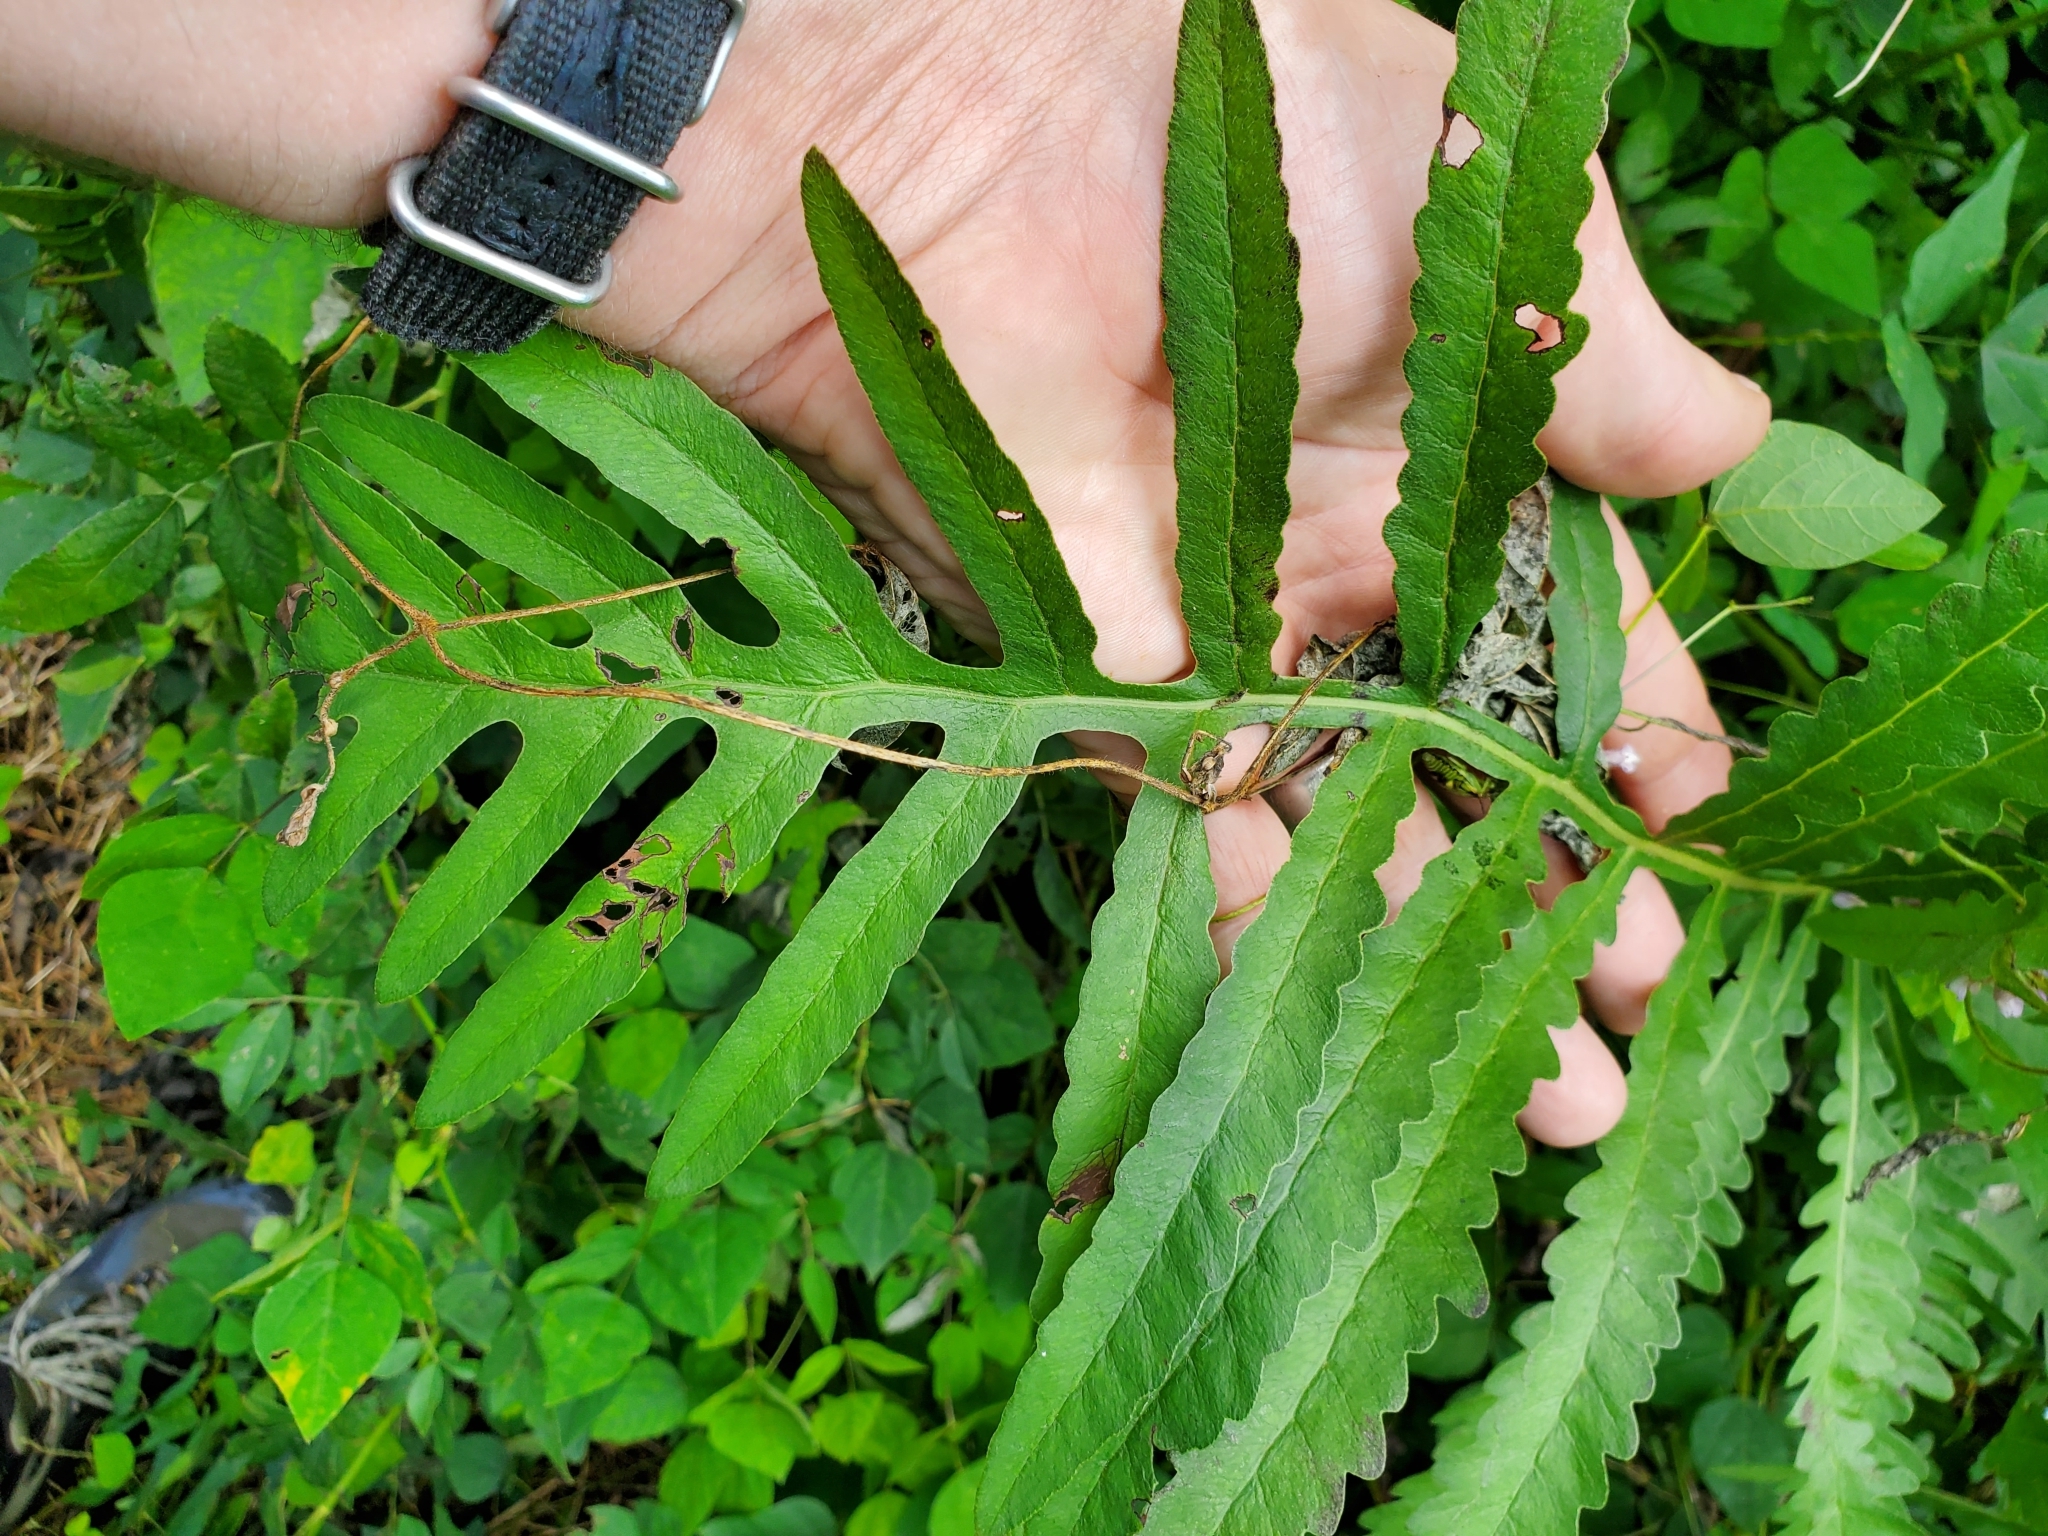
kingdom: Plantae
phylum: Tracheophyta
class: Polypodiopsida
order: Polypodiales
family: Onocleaceae
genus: Onoclea
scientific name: Onoclea sensibilis
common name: Sensitive fern
